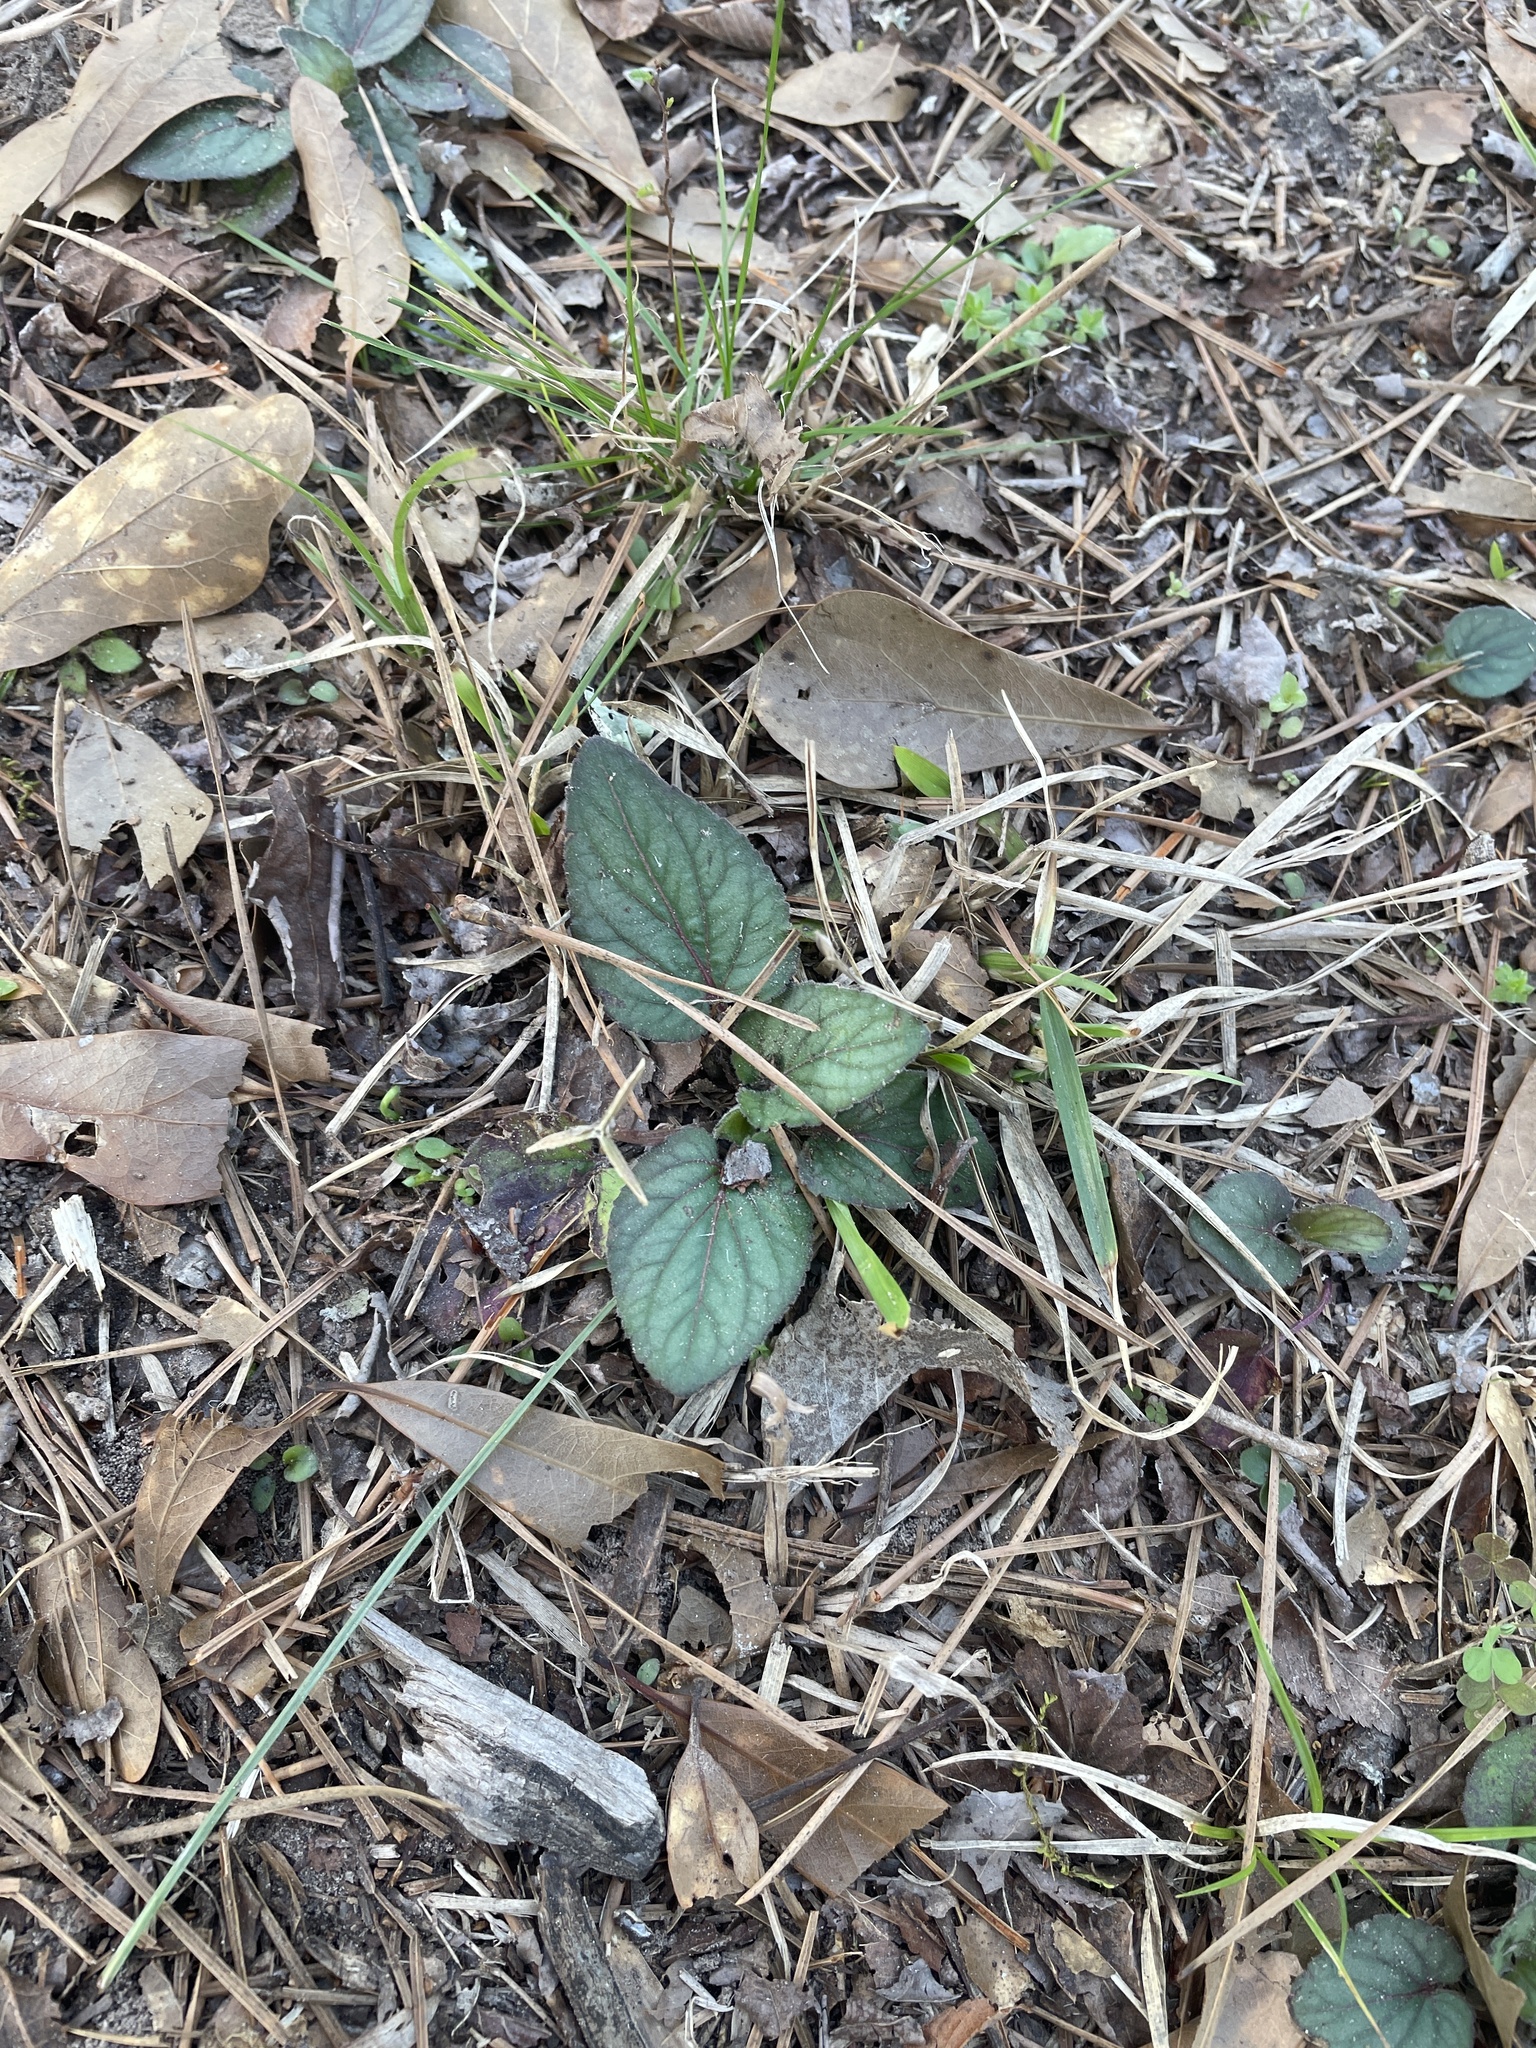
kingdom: Plantae
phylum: Tracheophyta
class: Magnoliopsida
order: Malpighiales
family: Violaceae
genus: Viola
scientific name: Viola villosa
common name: Carolina violet
